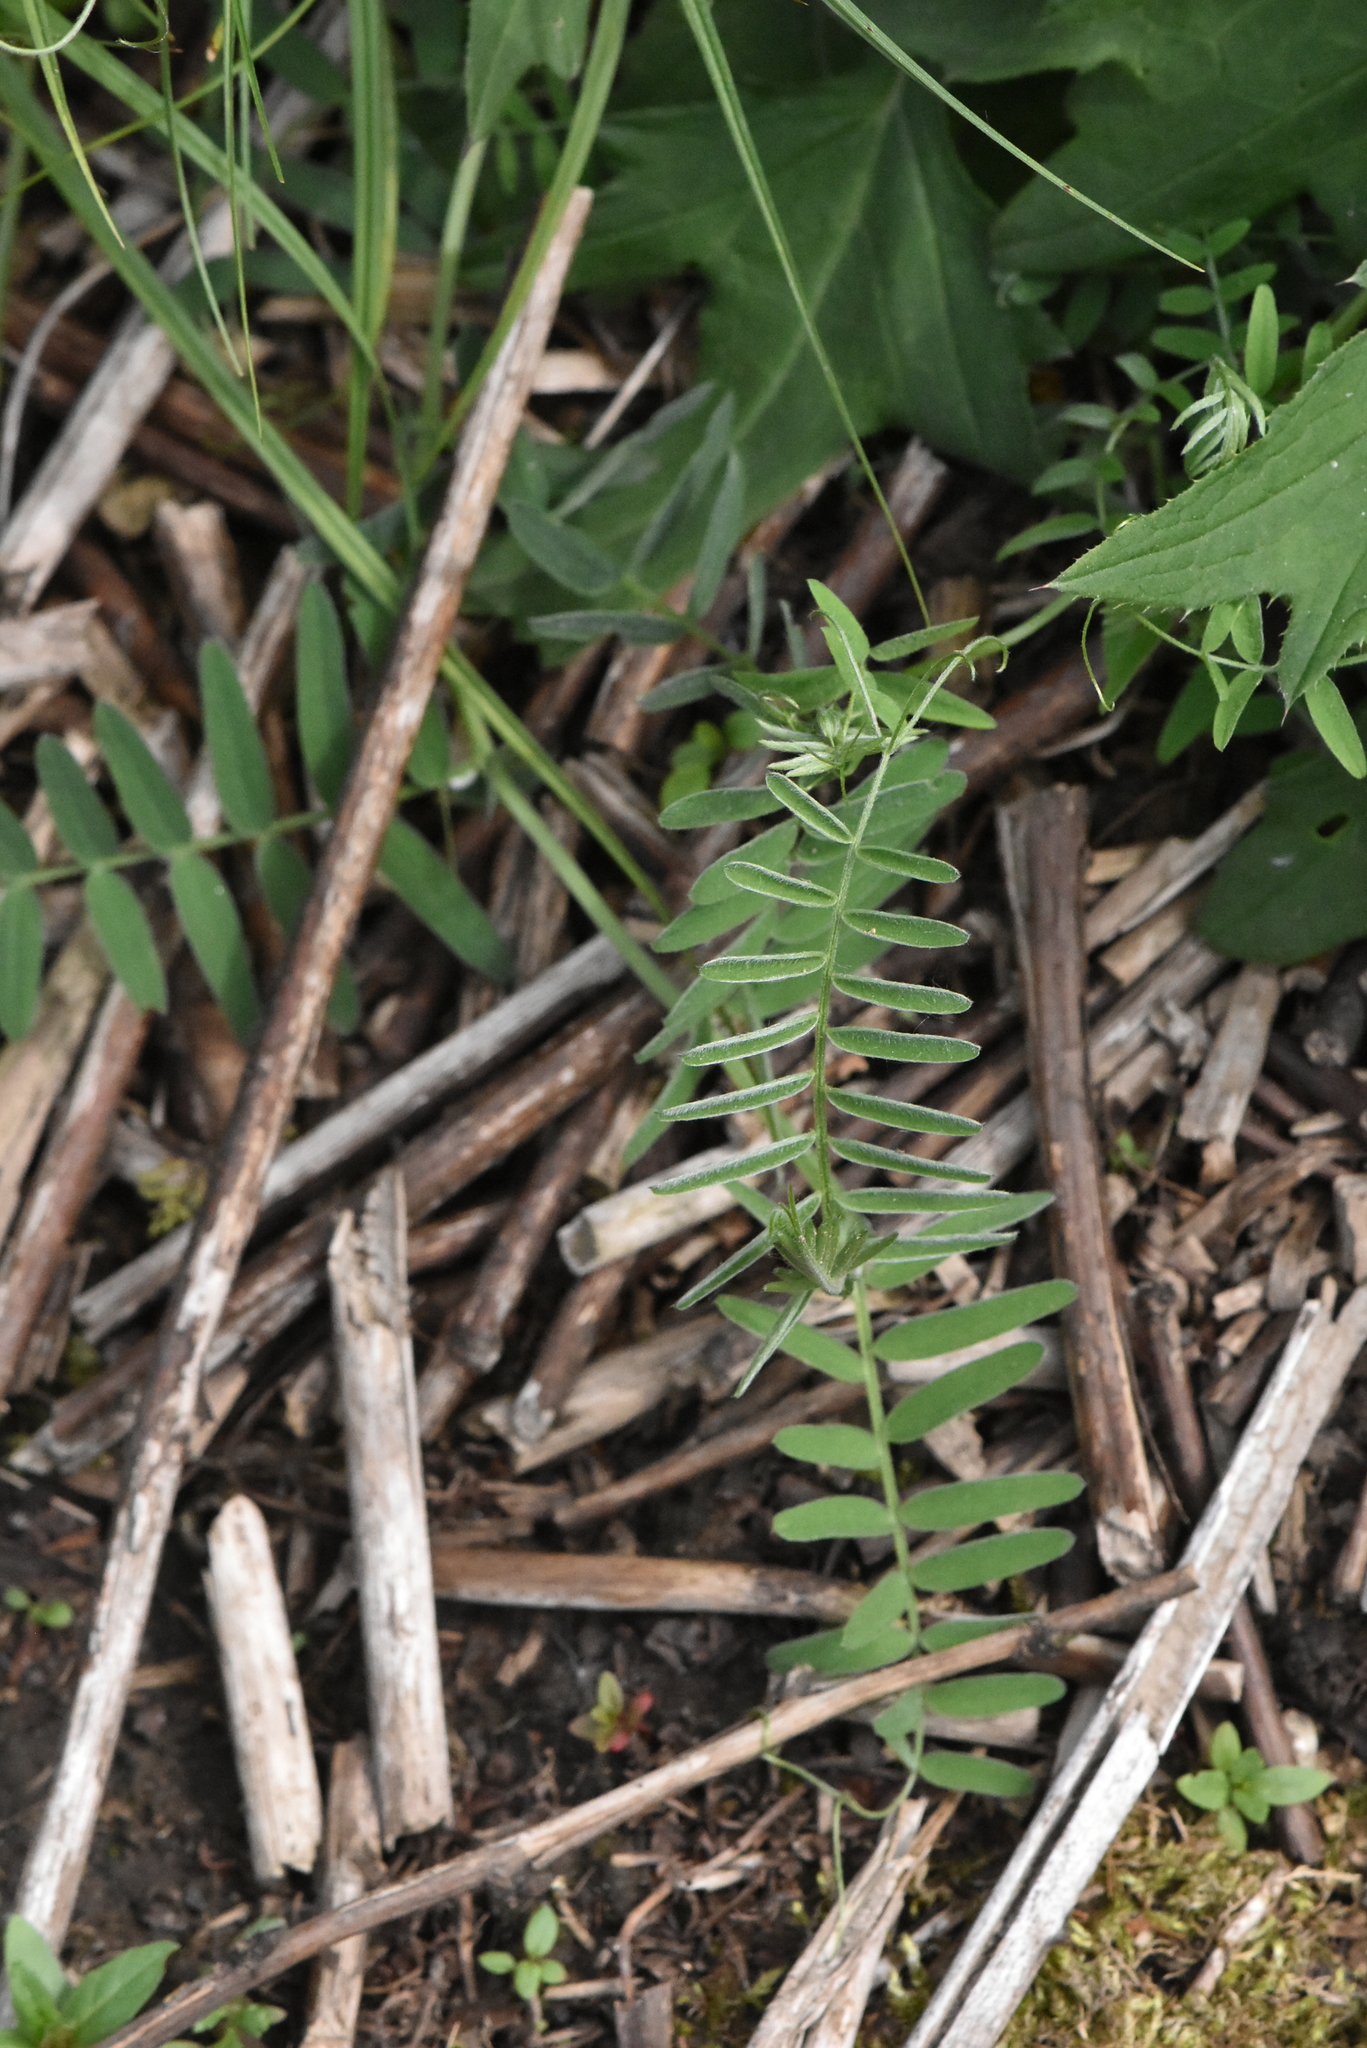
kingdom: Plantae
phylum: Tracheophyta
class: Magnoliopsida
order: Fabales
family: Fabaceae
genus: Vicia
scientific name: Vicia cracca
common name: Bird vetch
